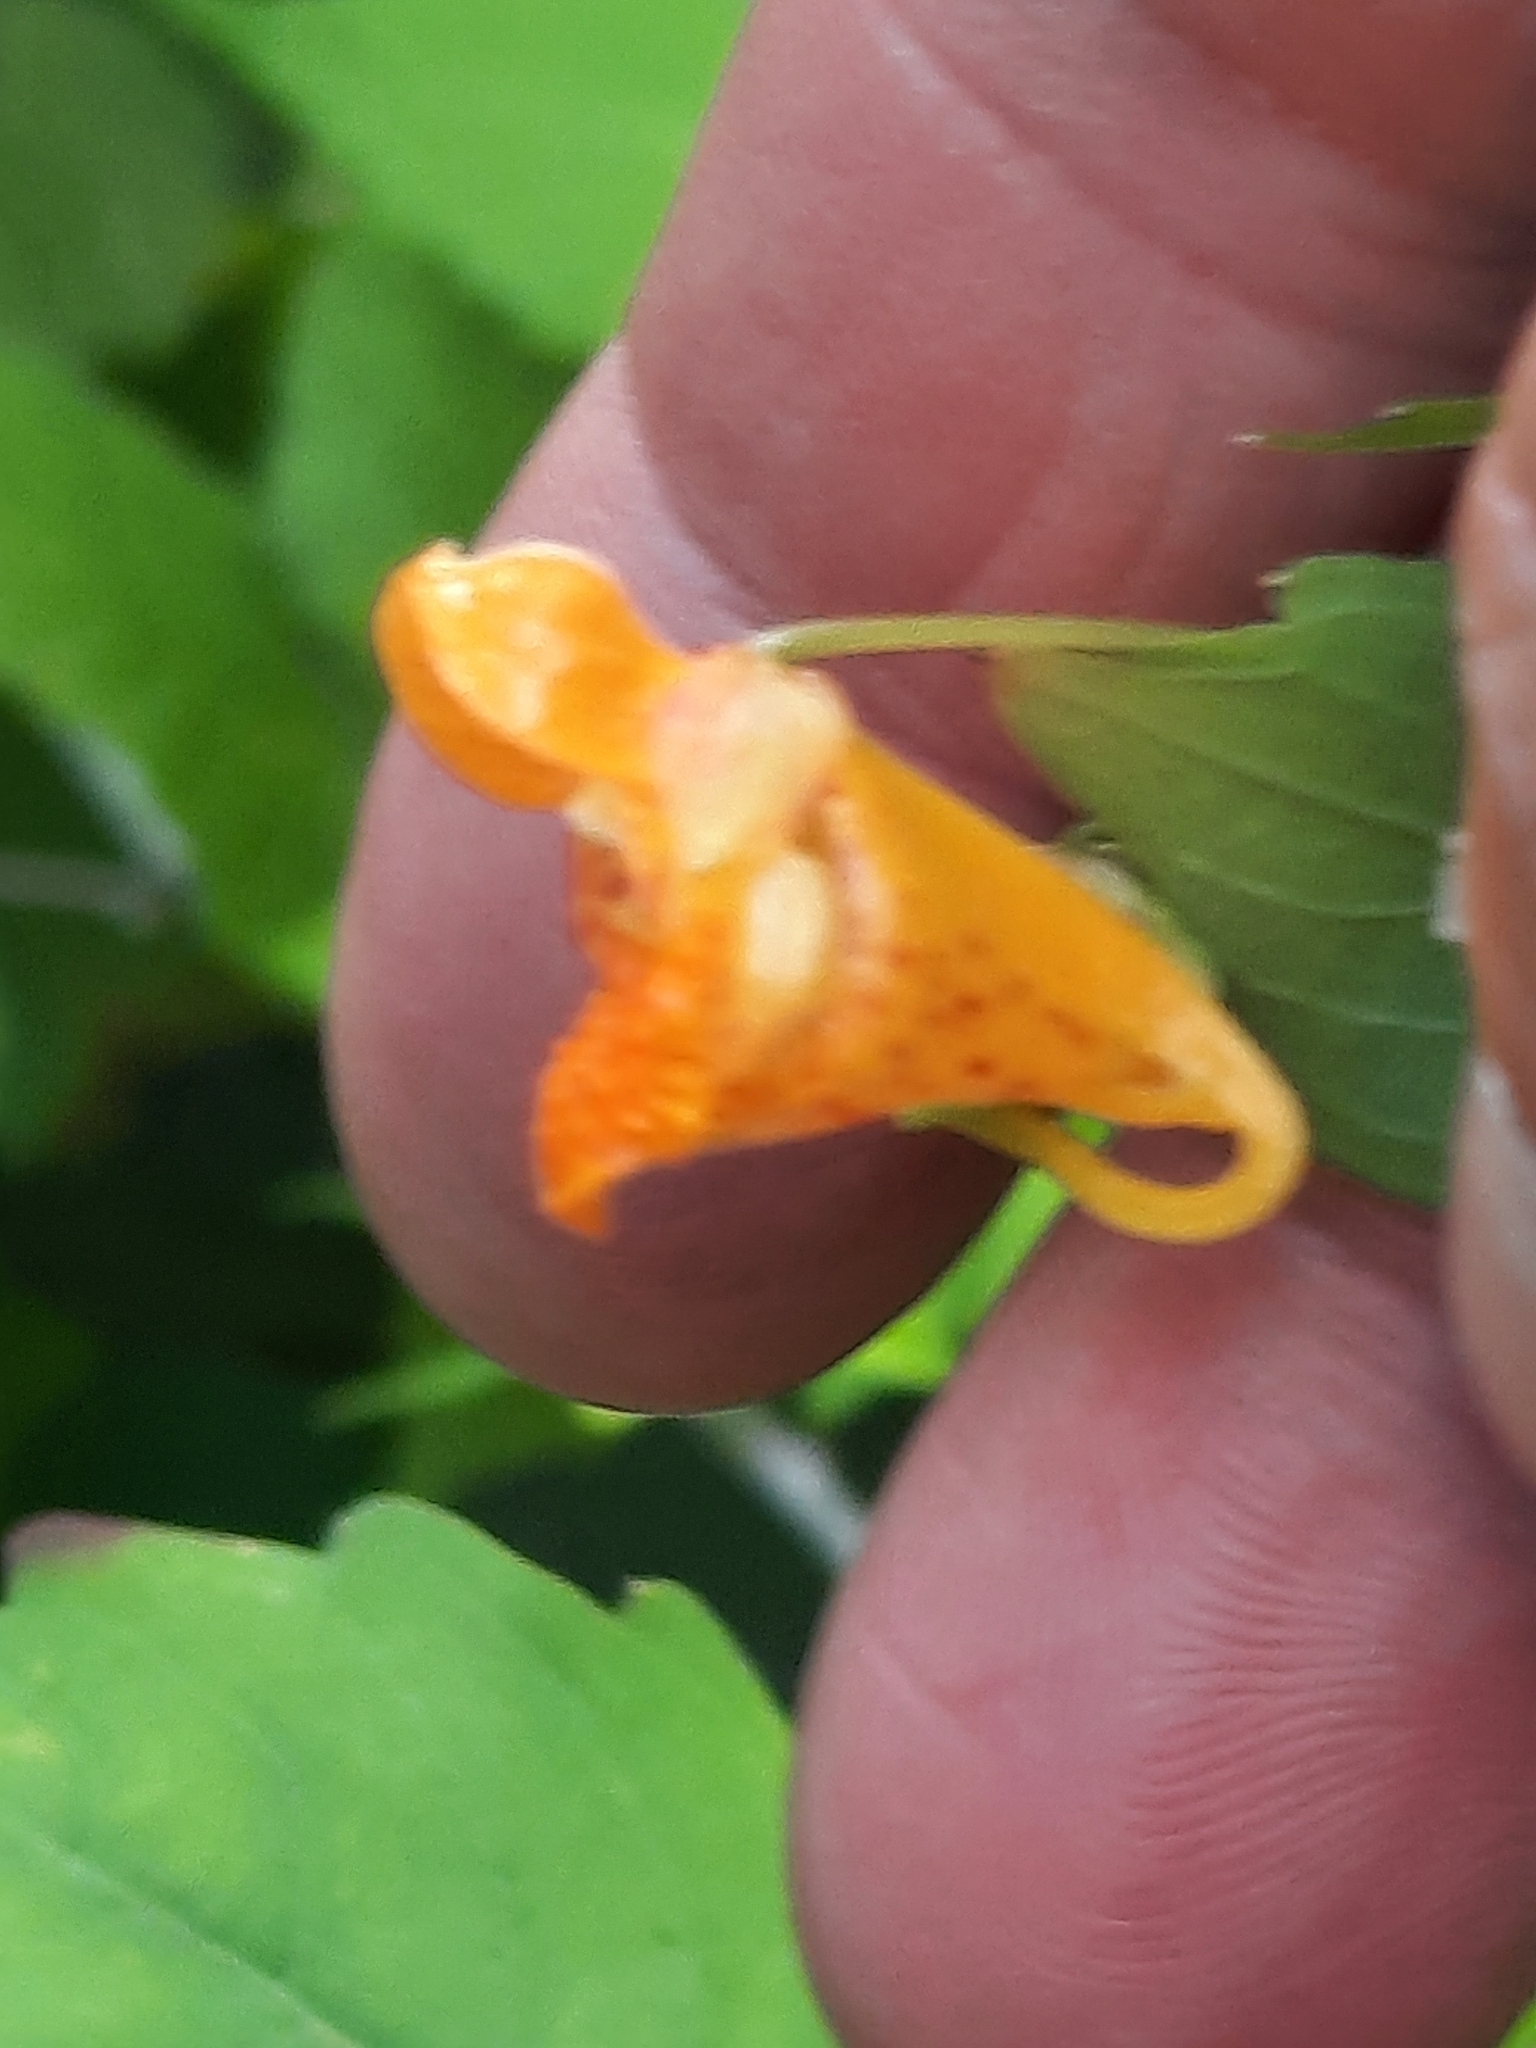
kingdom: Plantae
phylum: Tracheophyta
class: Magnoliopsida
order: Ericales
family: Balsaminaceae
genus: Impatiens
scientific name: Impatiens capensis
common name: Orange balsam
